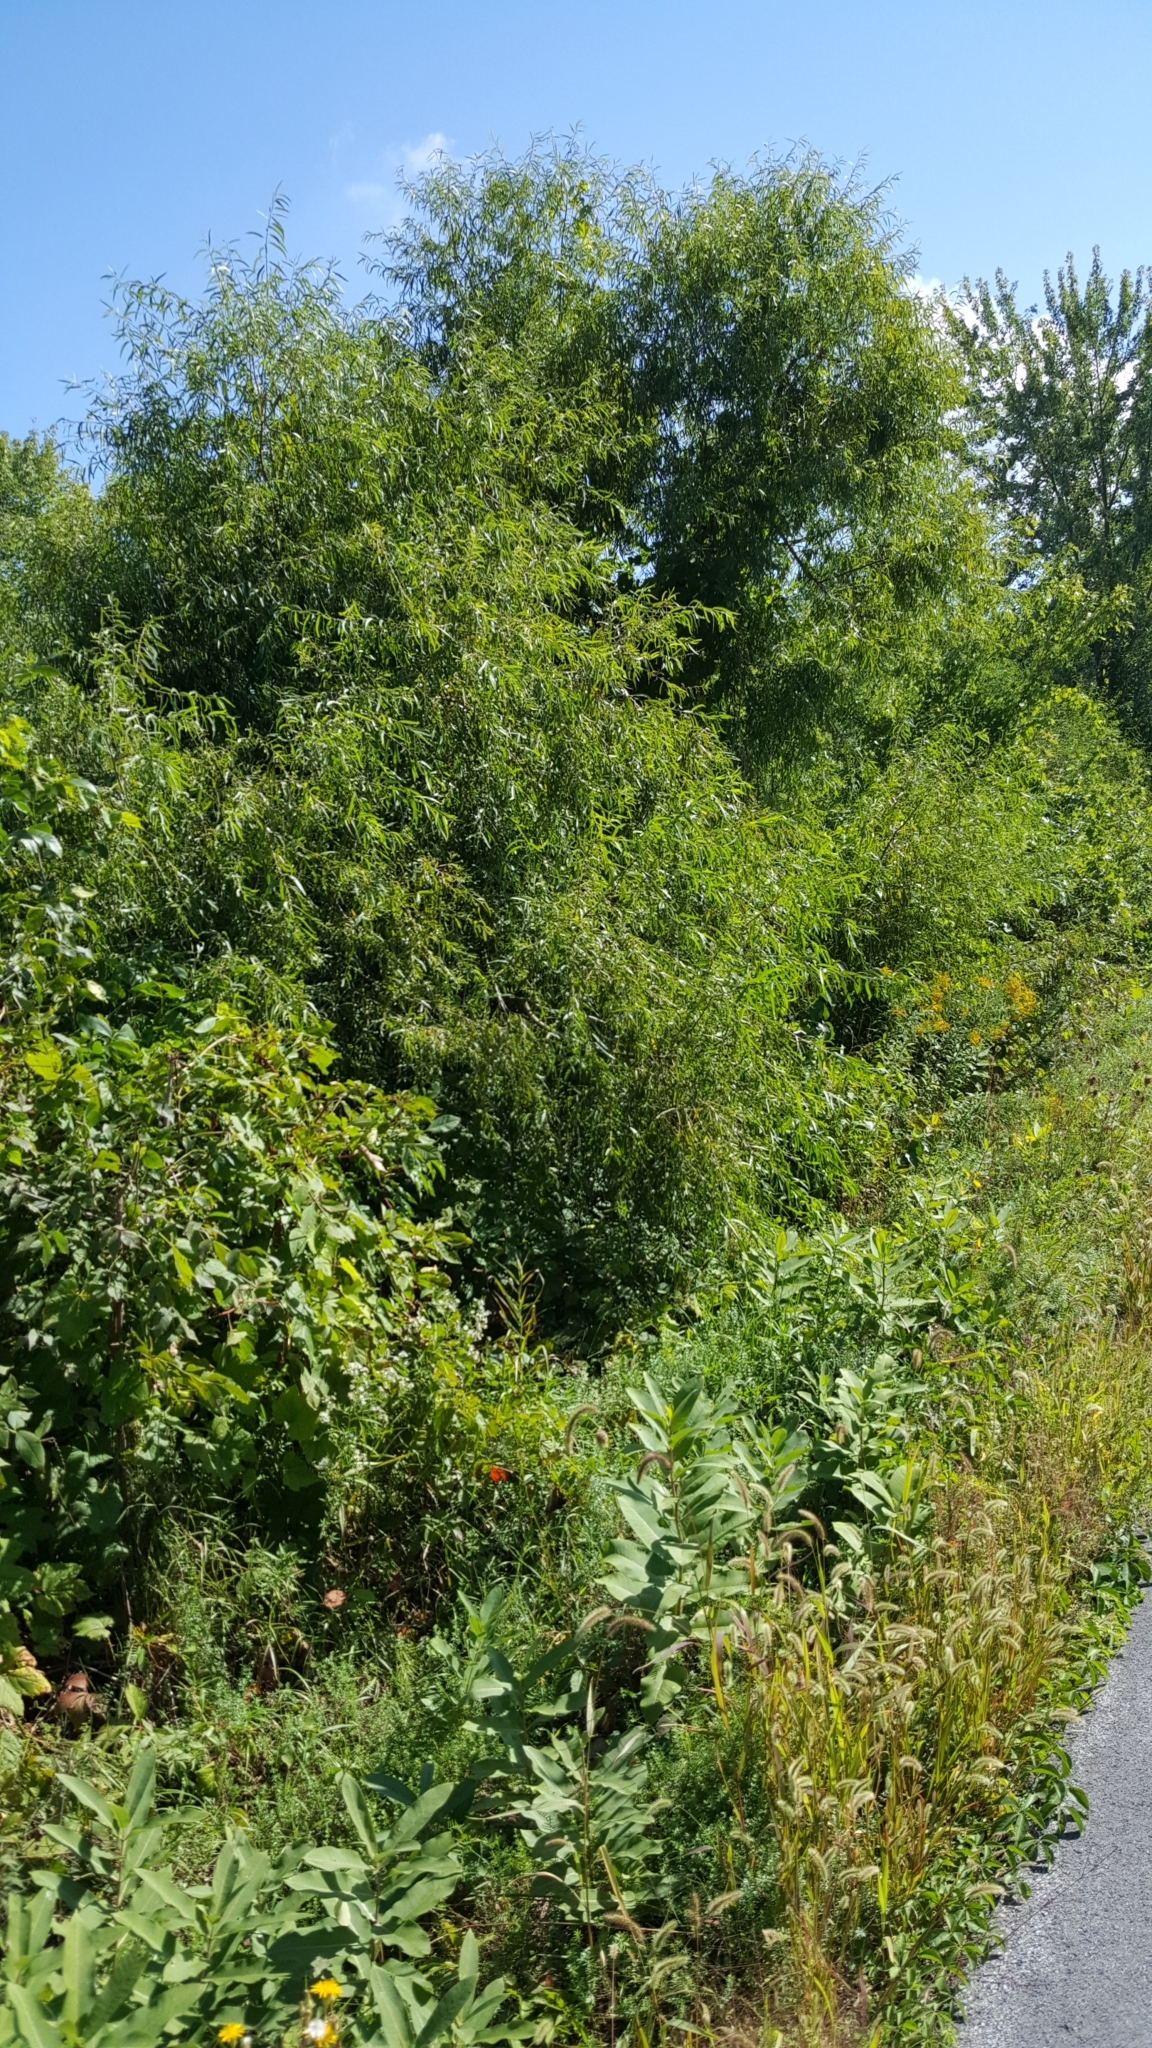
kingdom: Plantae
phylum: Tracheophyta
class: Magnoliopsida
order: Malpighiales
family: Salicaceae
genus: Salix
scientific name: Salix nigra
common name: Black willow
